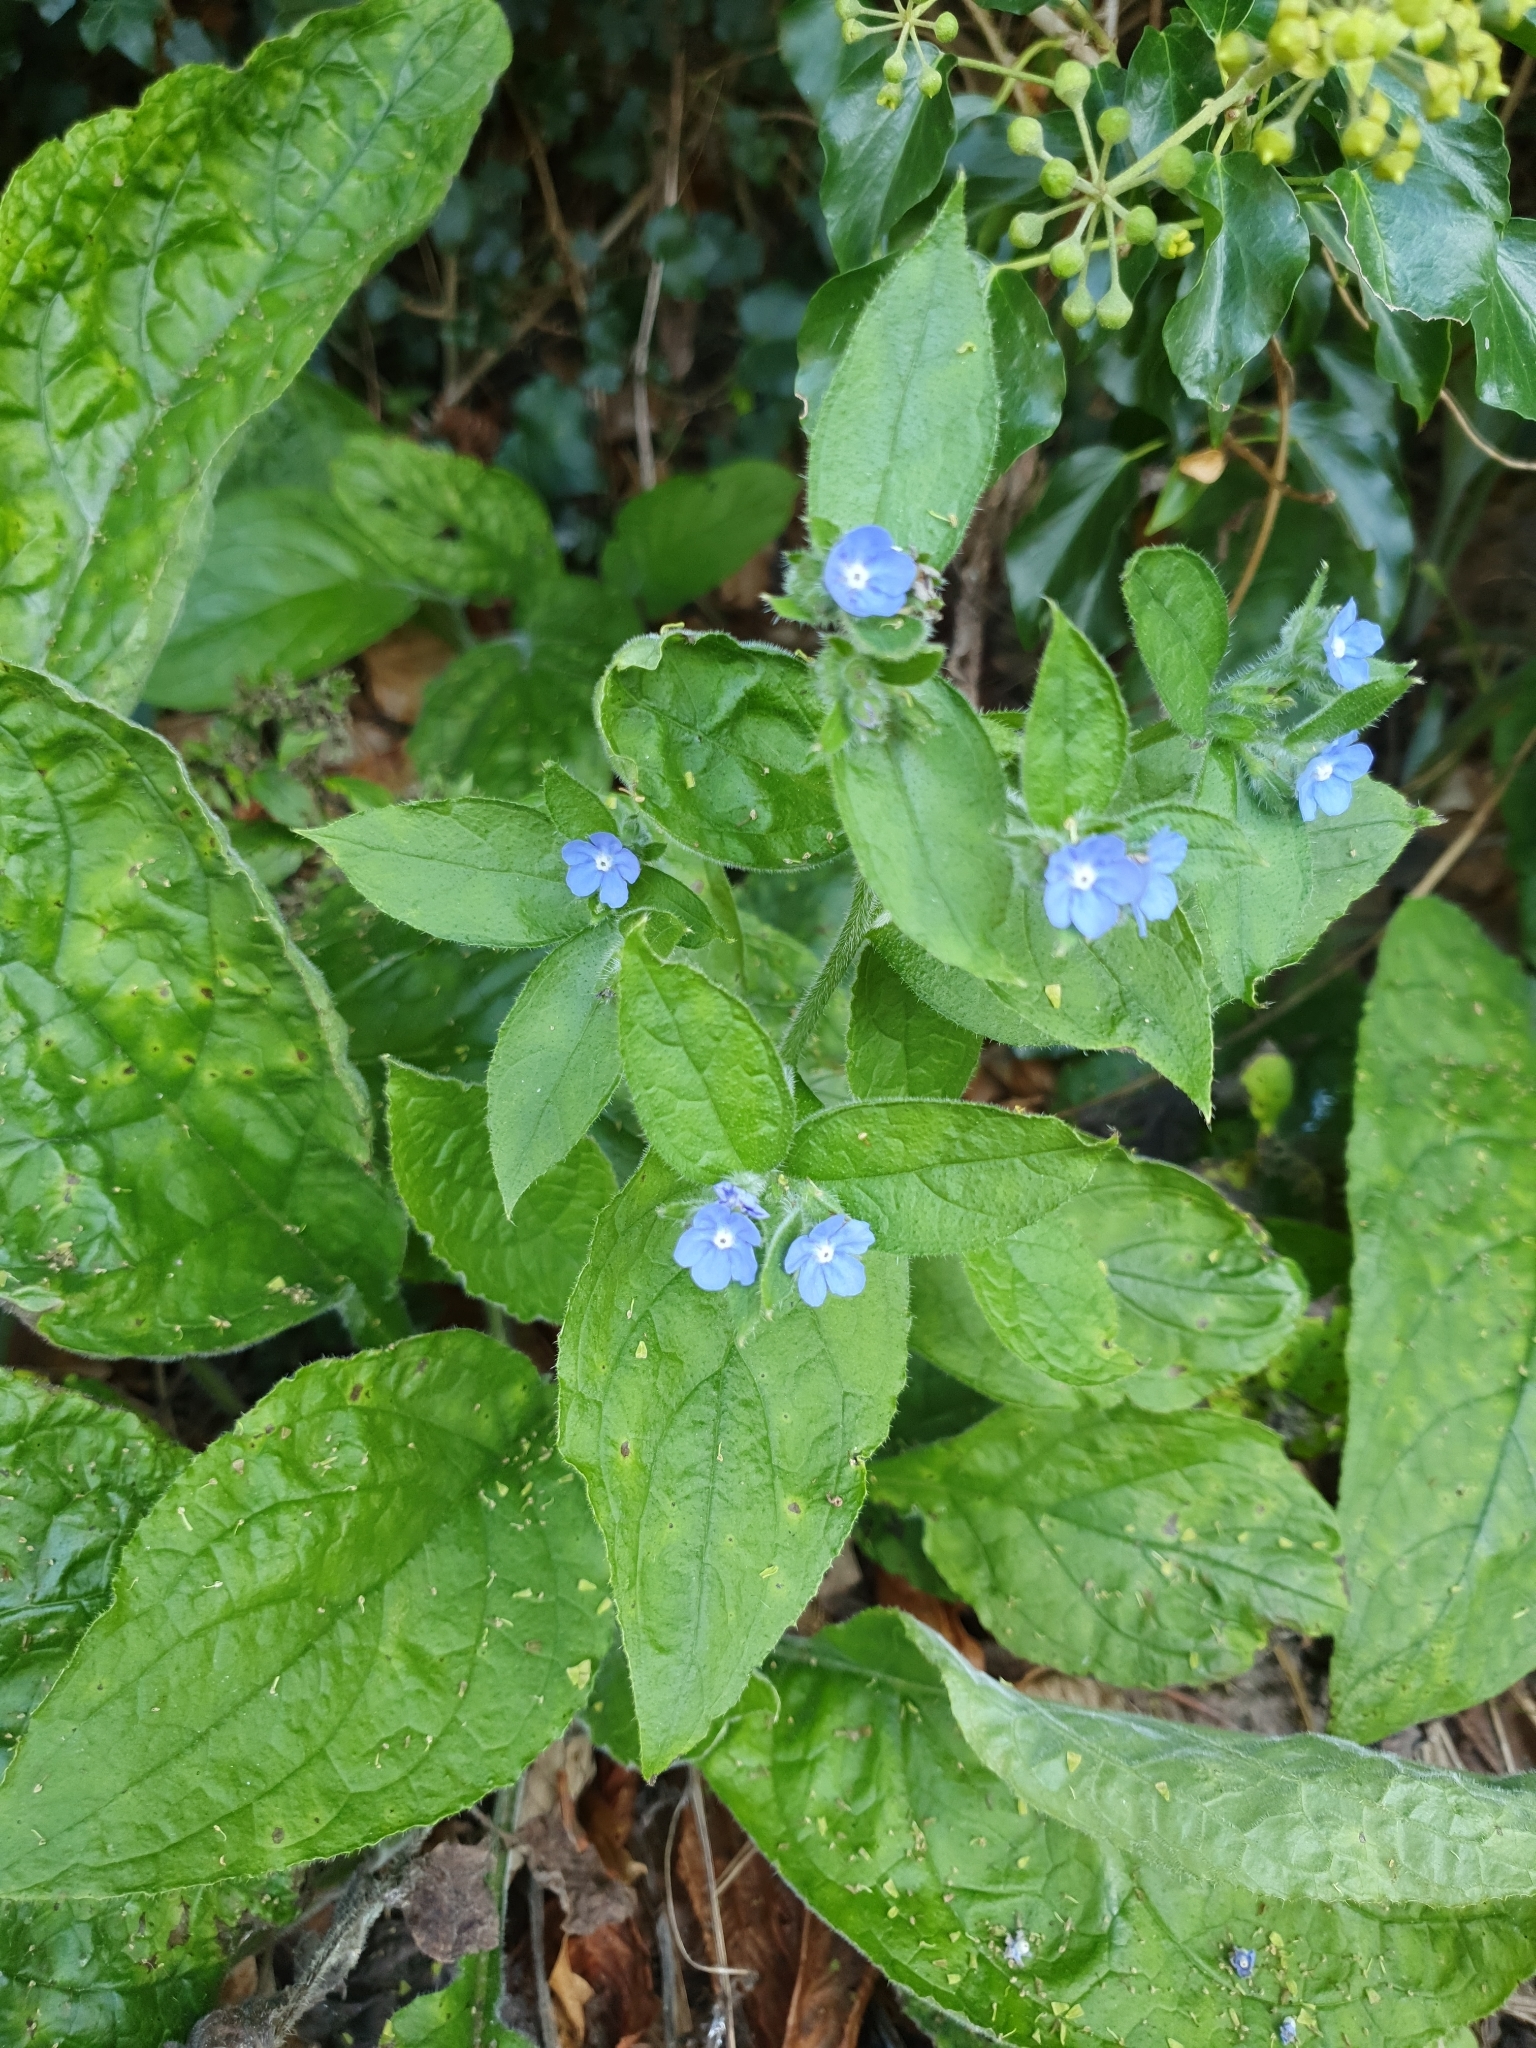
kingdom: Plantae
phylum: Tracheophyta
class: Magnoliopsida
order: Boraginales
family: Boraginaceae
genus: Pentaglottis
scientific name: Pentaglottis sempervirens
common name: Green alkanet
